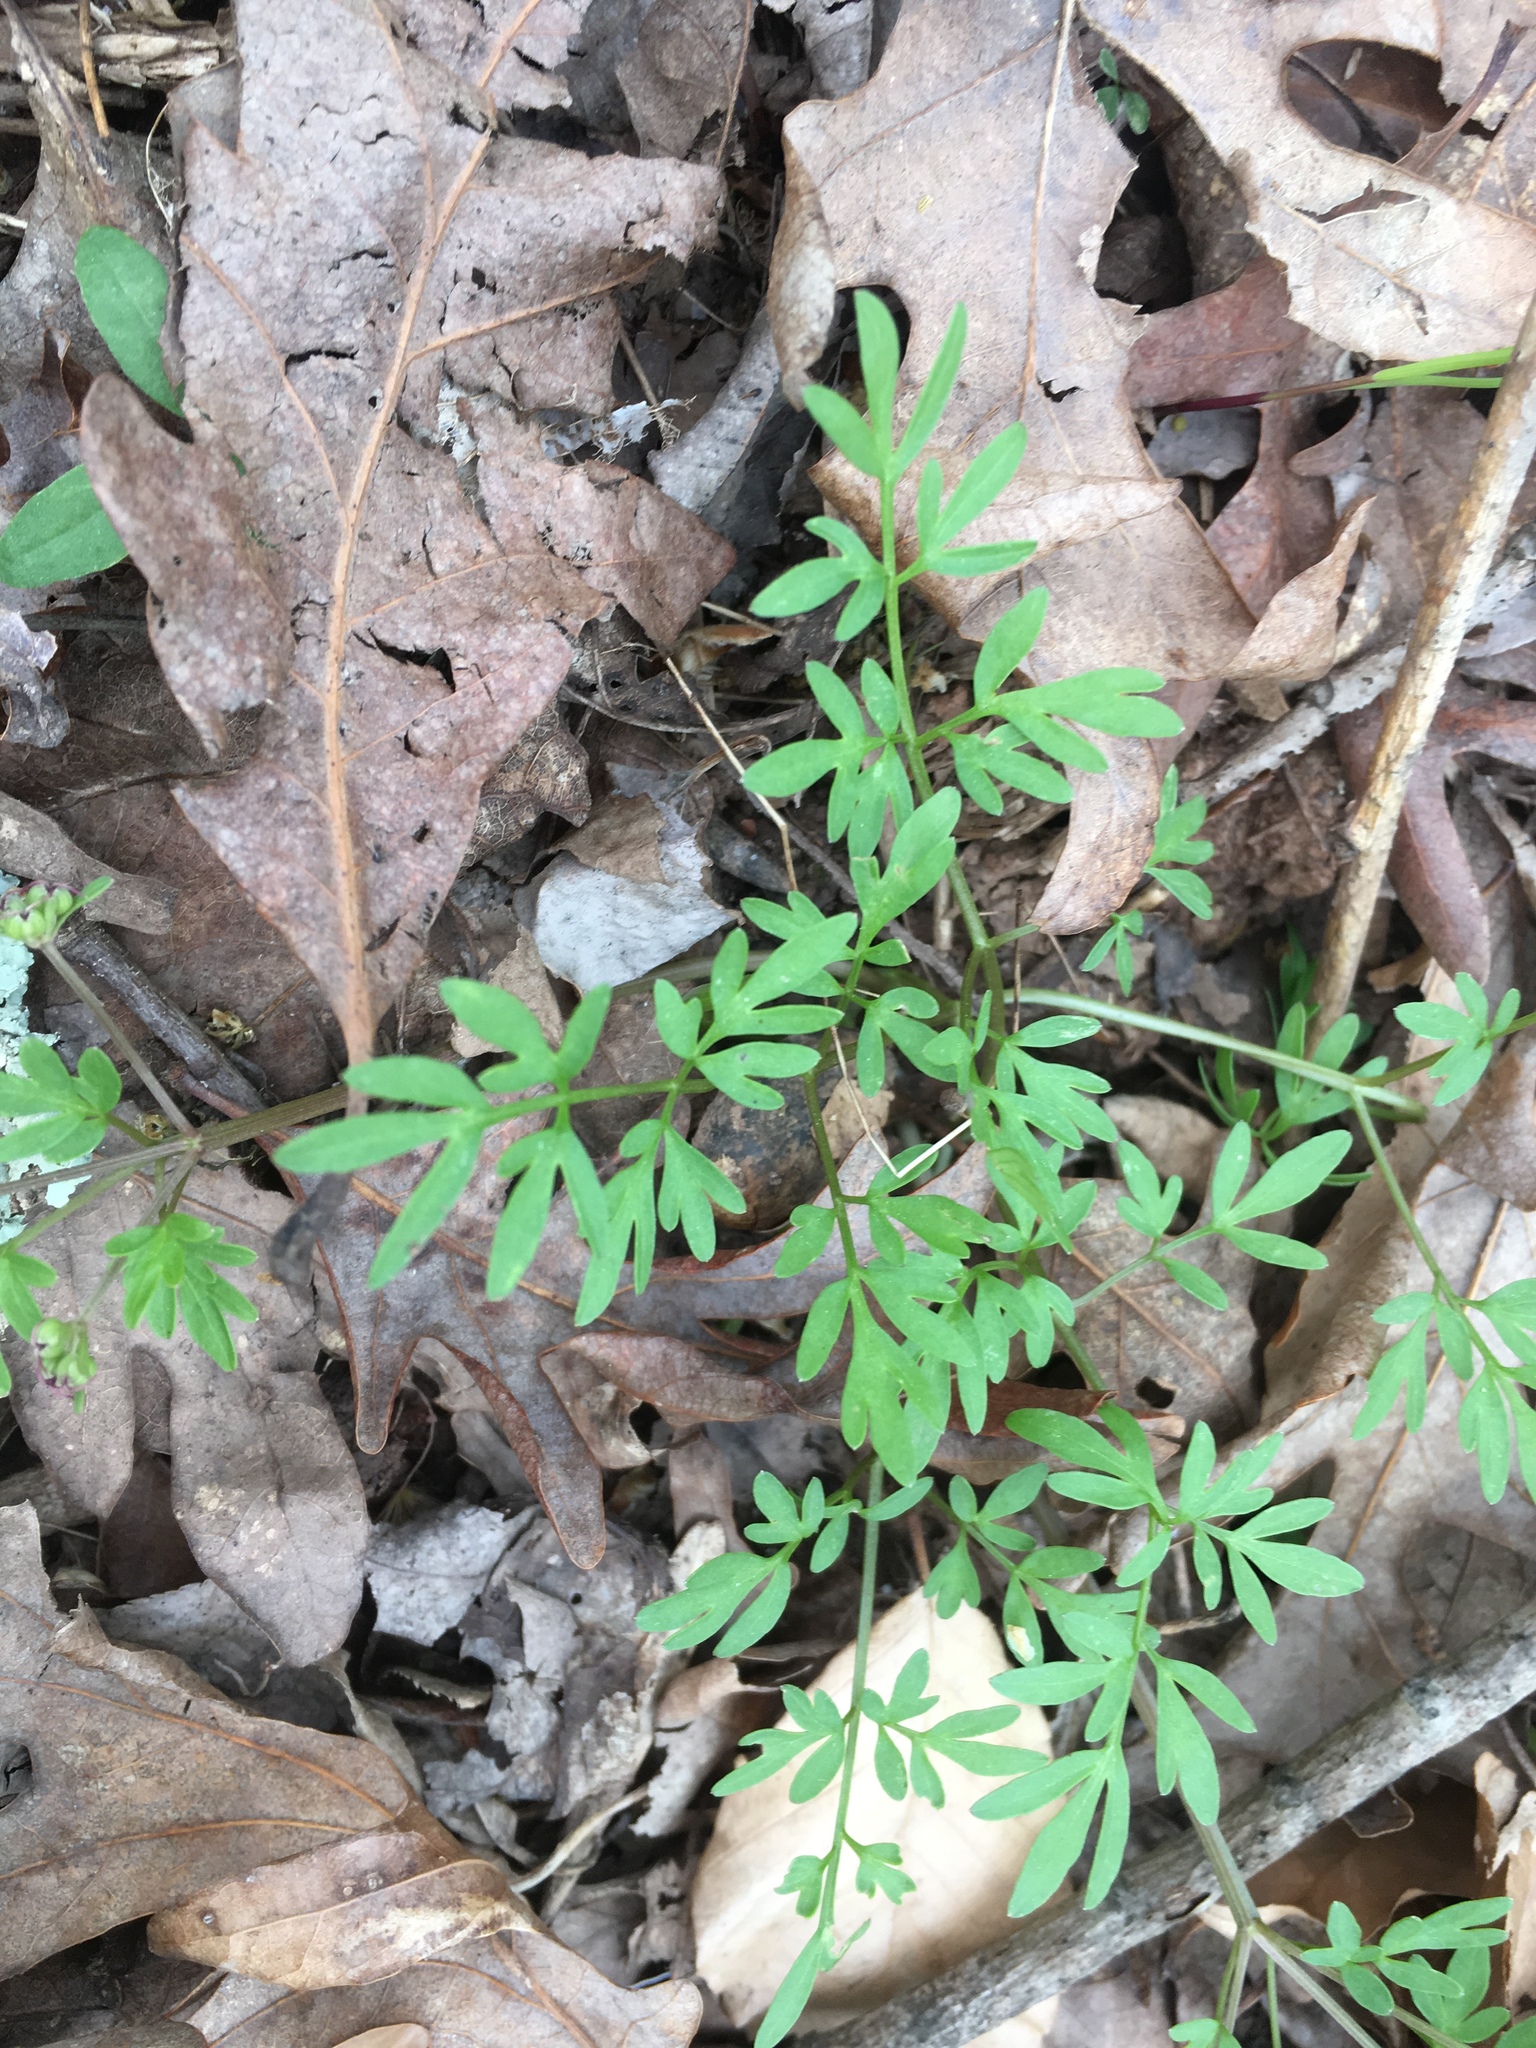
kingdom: Plantae
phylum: Tracheophyta
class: Magnoliopsida
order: Apiales
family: Apiaceae
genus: Erigenia
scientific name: Erigenia bulbosa
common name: Pepper-and-salt
